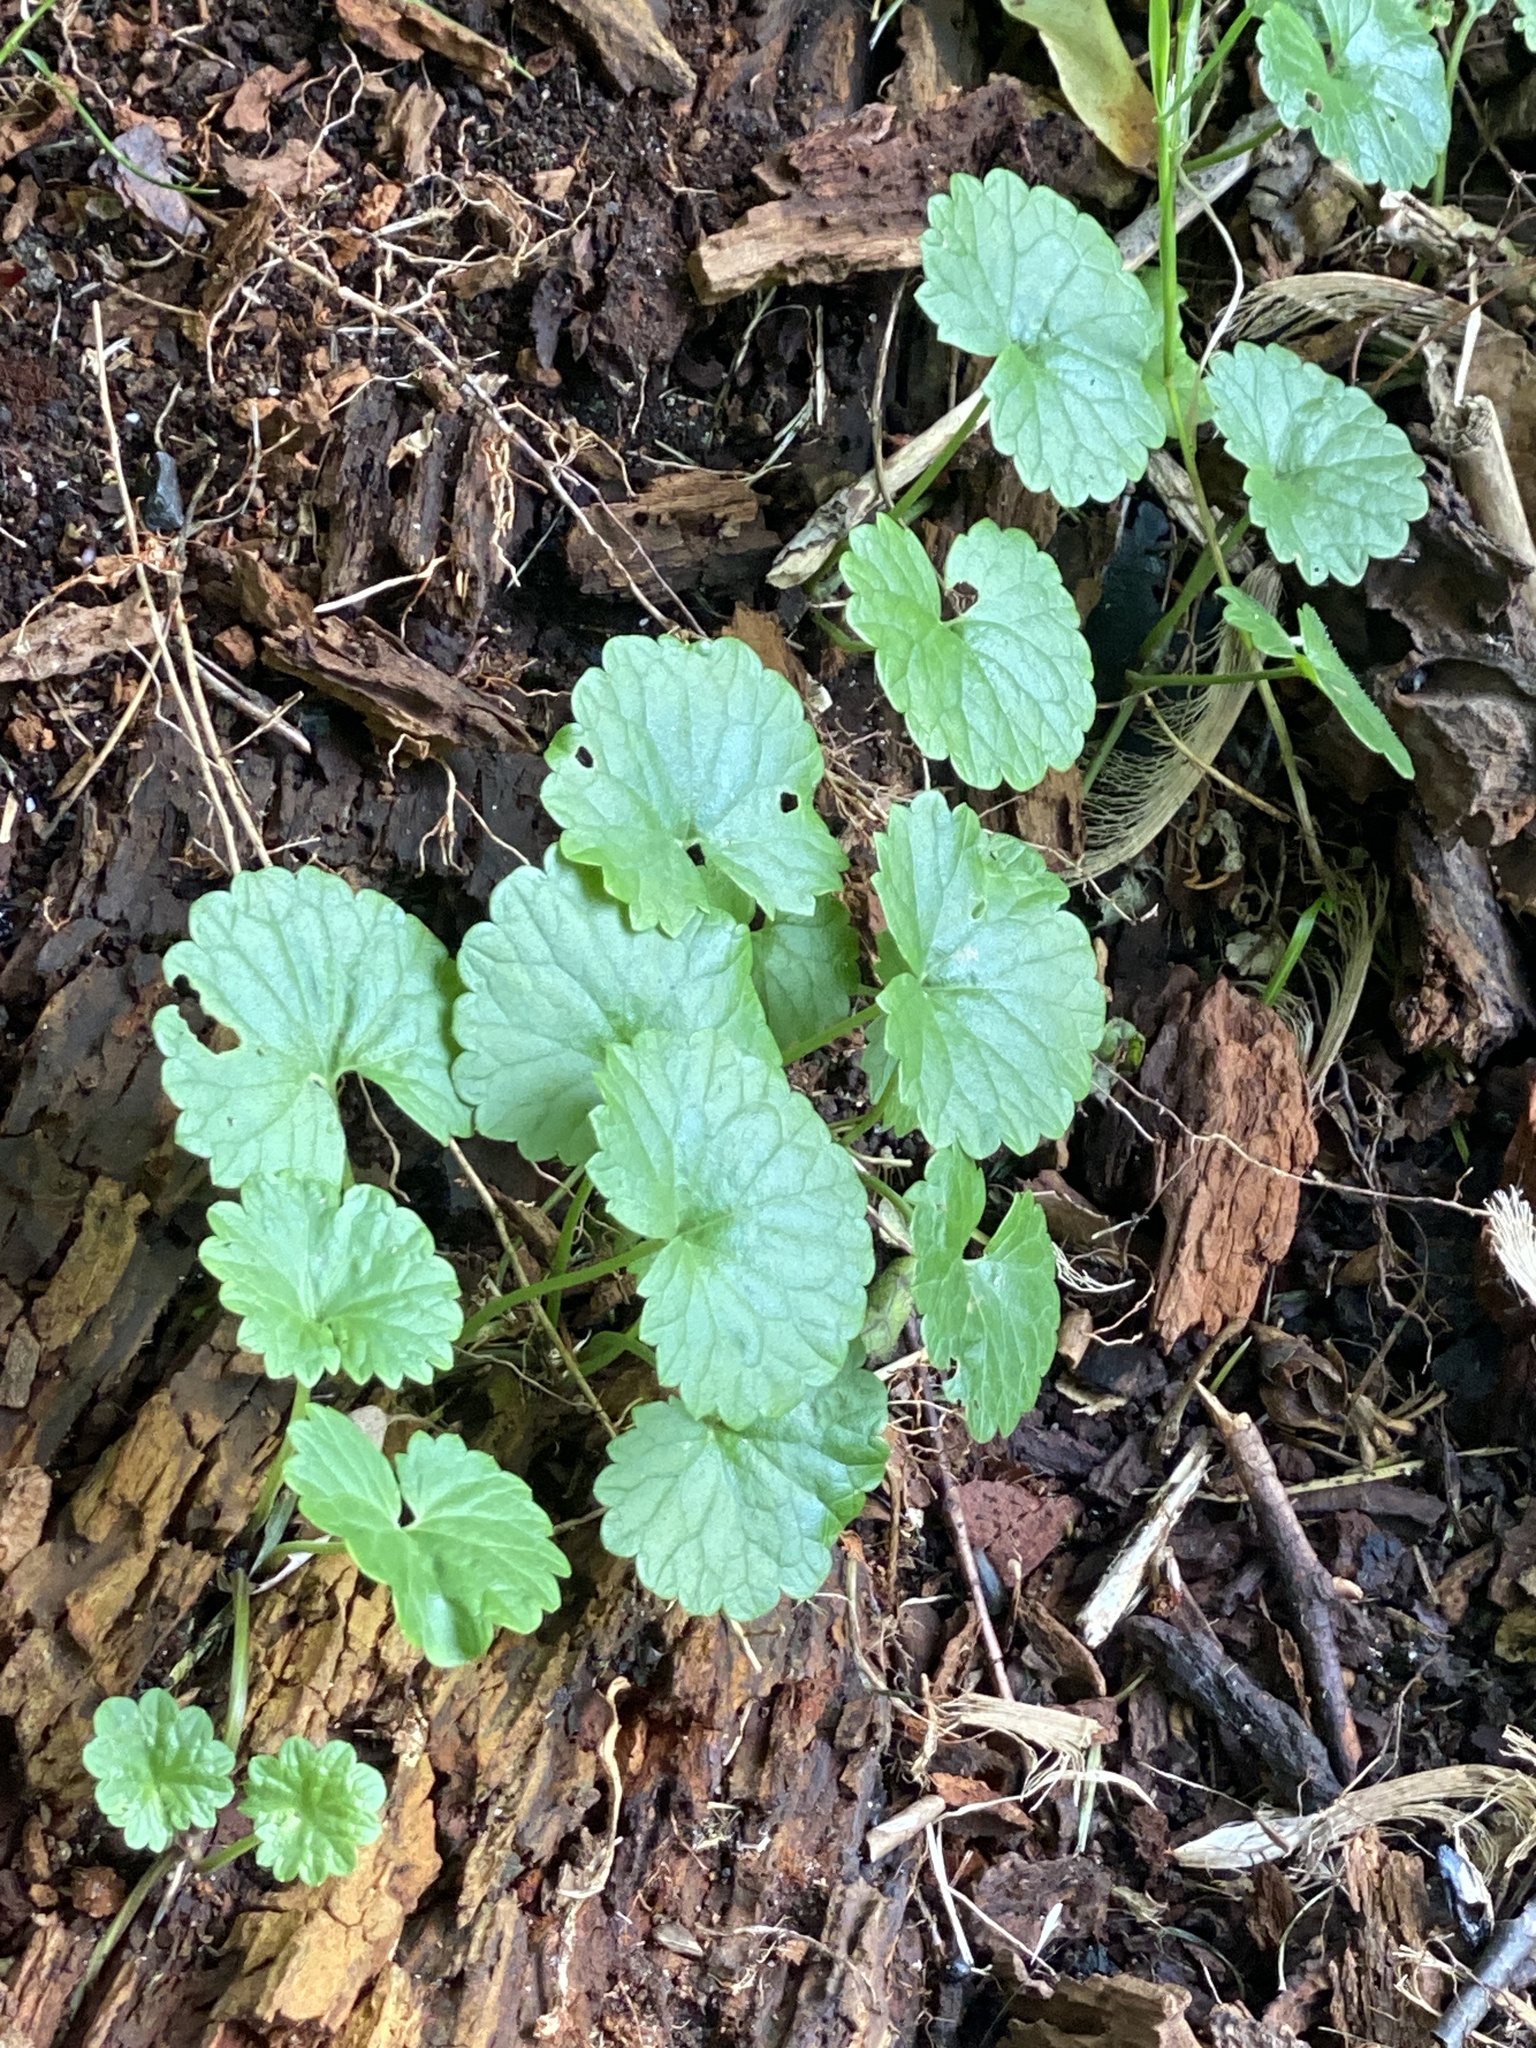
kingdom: Plantae
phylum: Tracheophyta
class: Magnoliopsida
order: Lamiales
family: Lamiaceae
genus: Glechoma
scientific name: Glechoma hederacea
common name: Ground ivy
